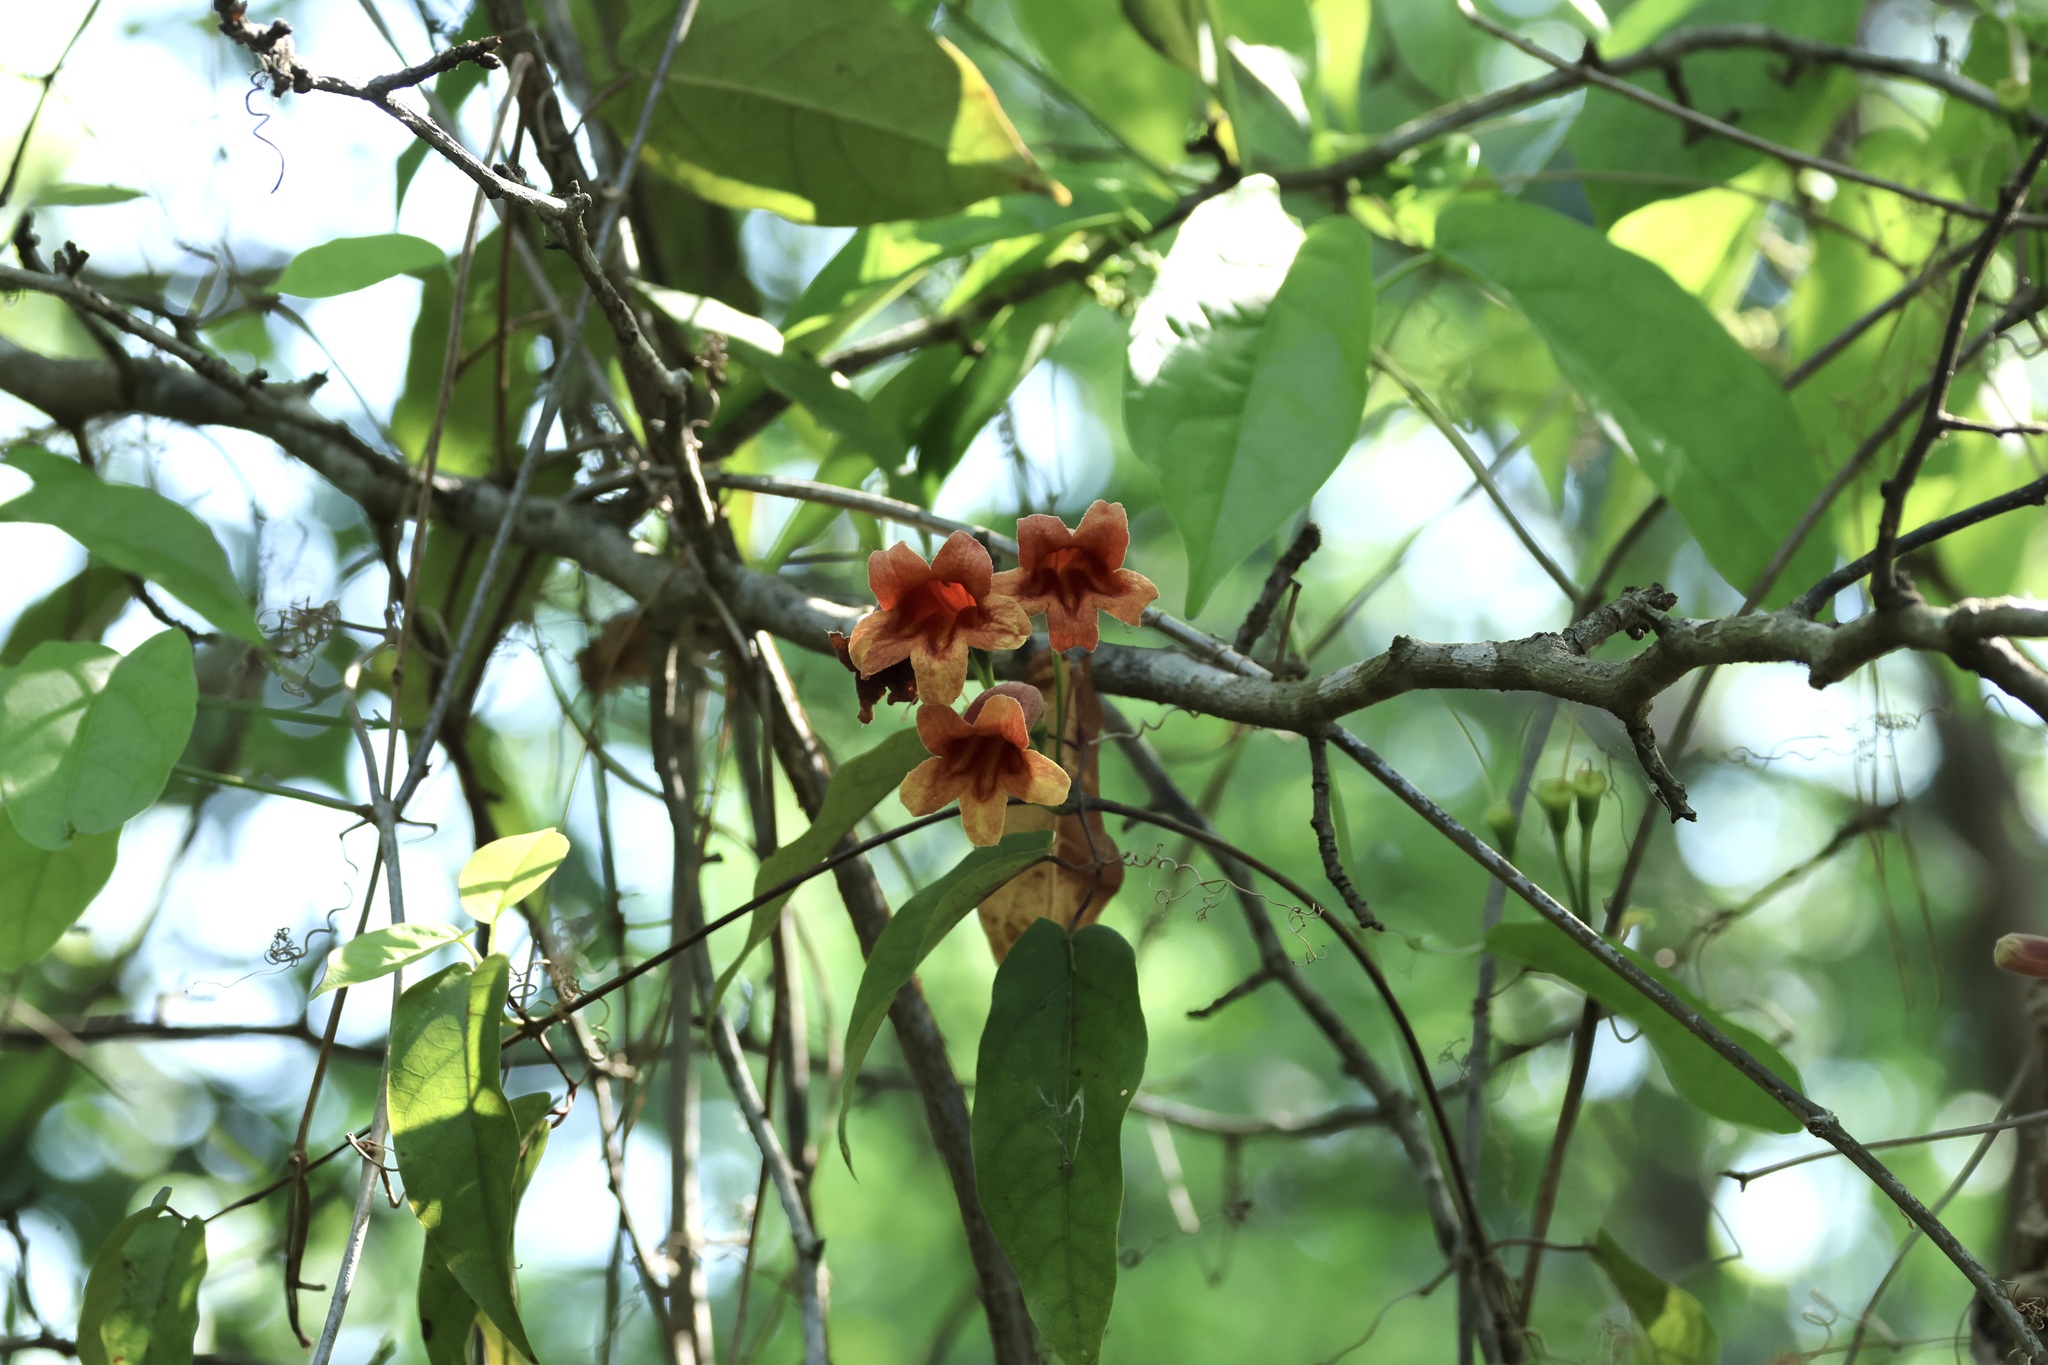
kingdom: Plantae
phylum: Tracheophyta
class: Magnoliopsida
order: Lamiales
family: Bignoniaceae
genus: Bignonia
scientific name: Bignonia capreolata
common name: Crossvine
